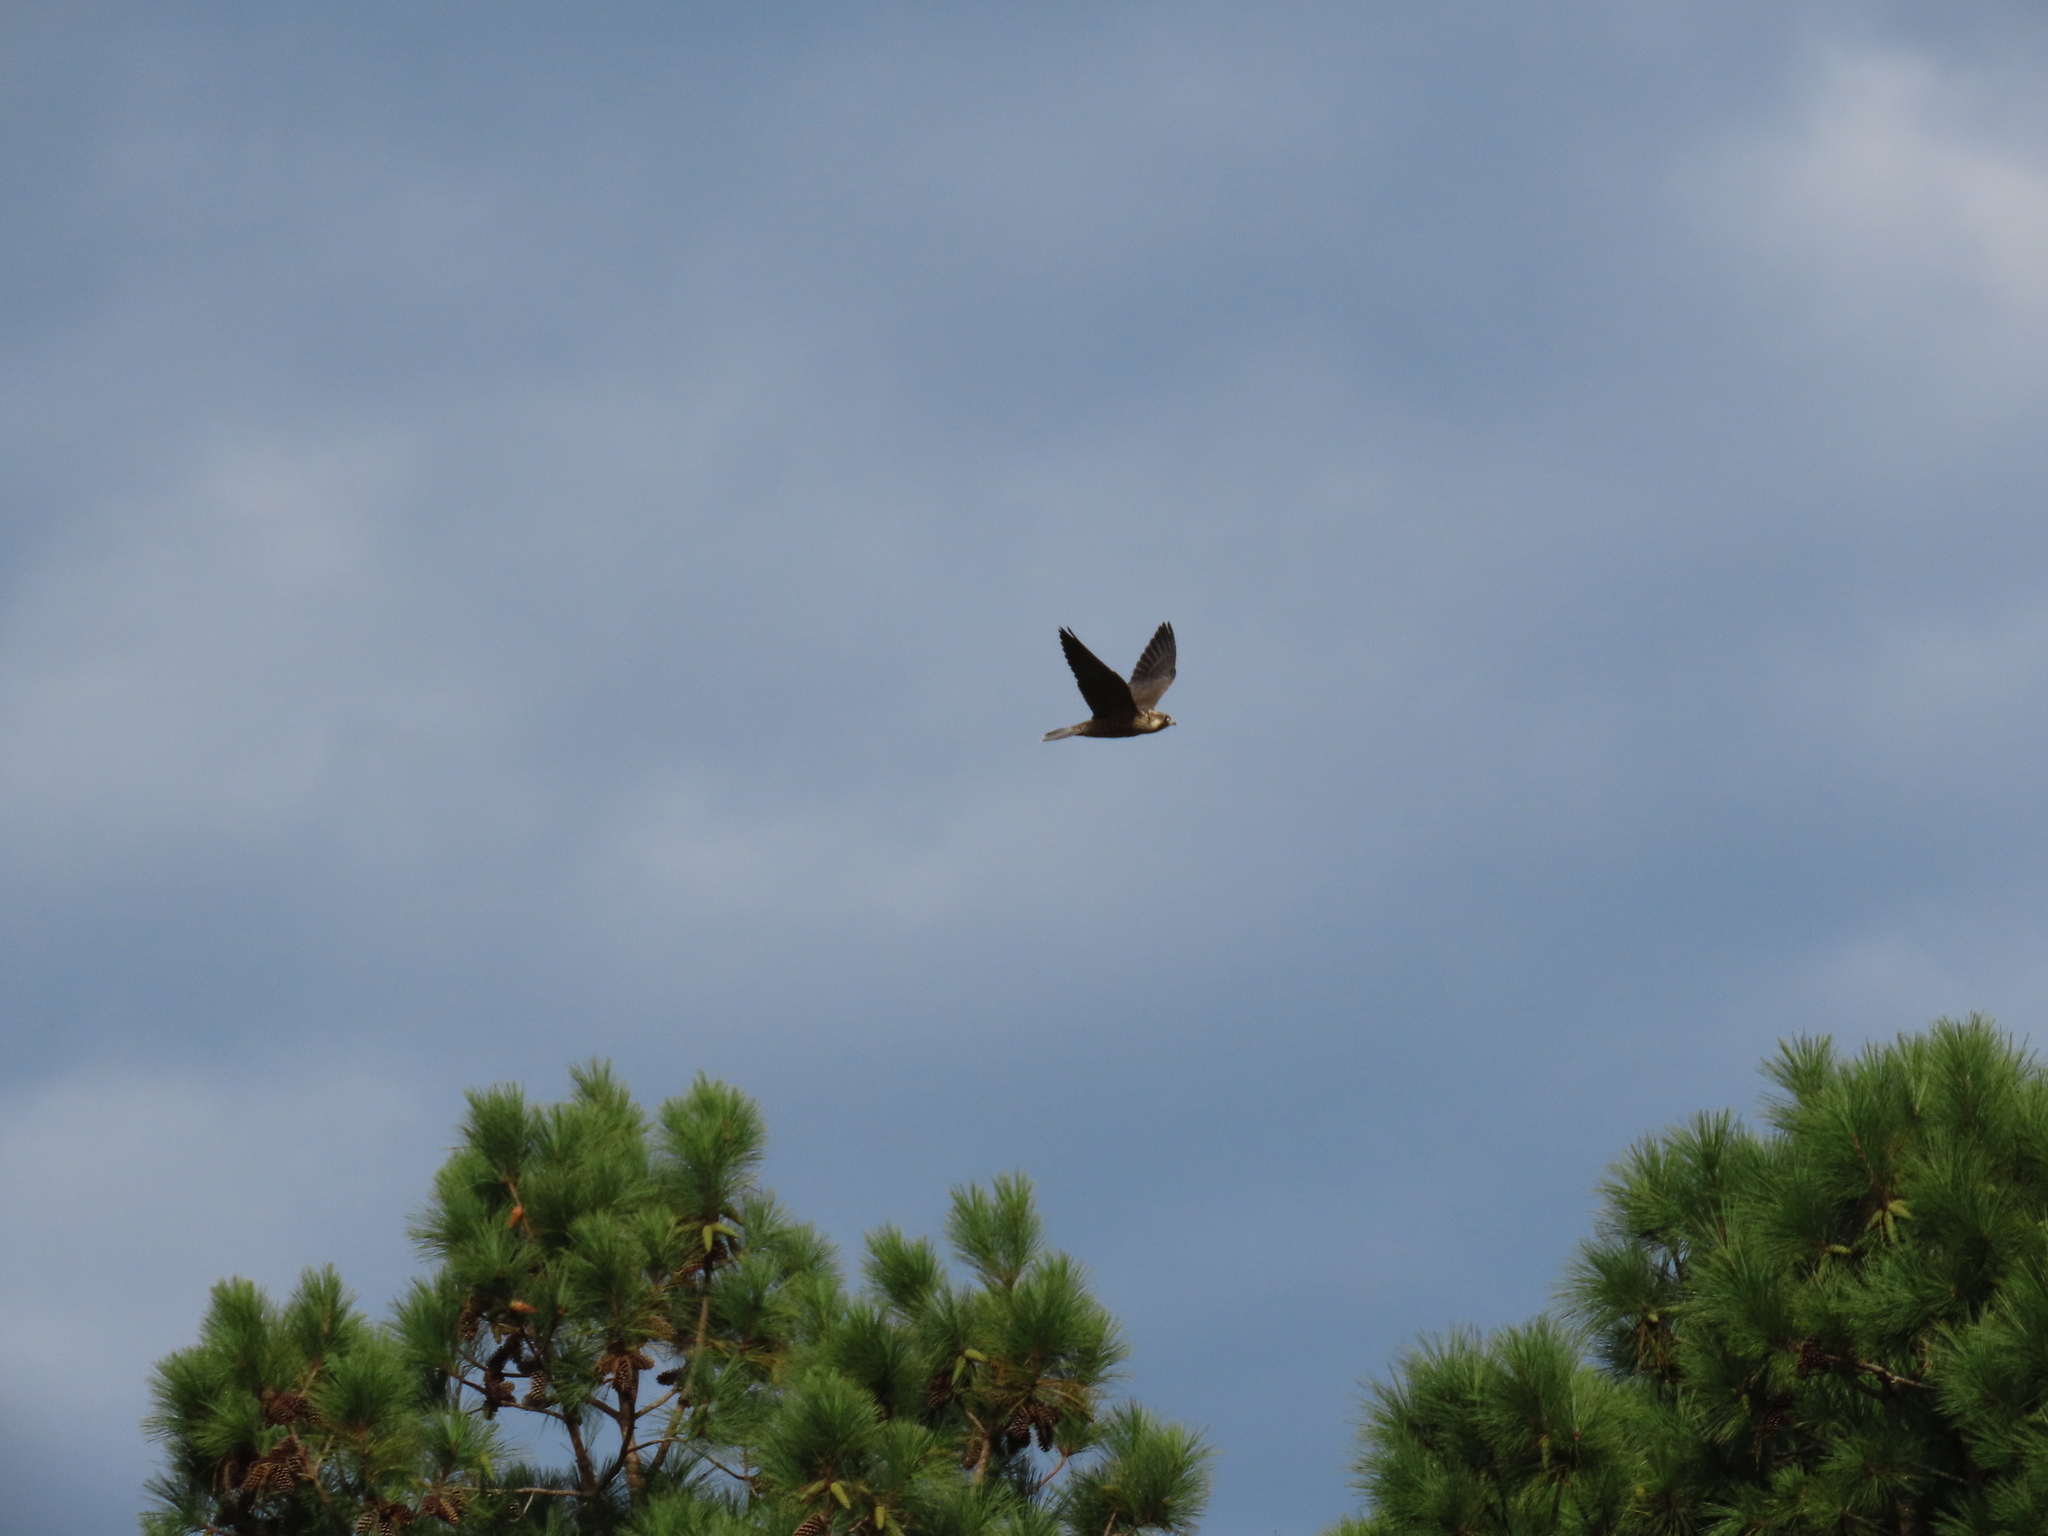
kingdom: Animalia
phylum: Chordata
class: Aves
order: Falconiformes
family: Falconidae
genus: Falco
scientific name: Falco peregrinus
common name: Peregrine falcon
